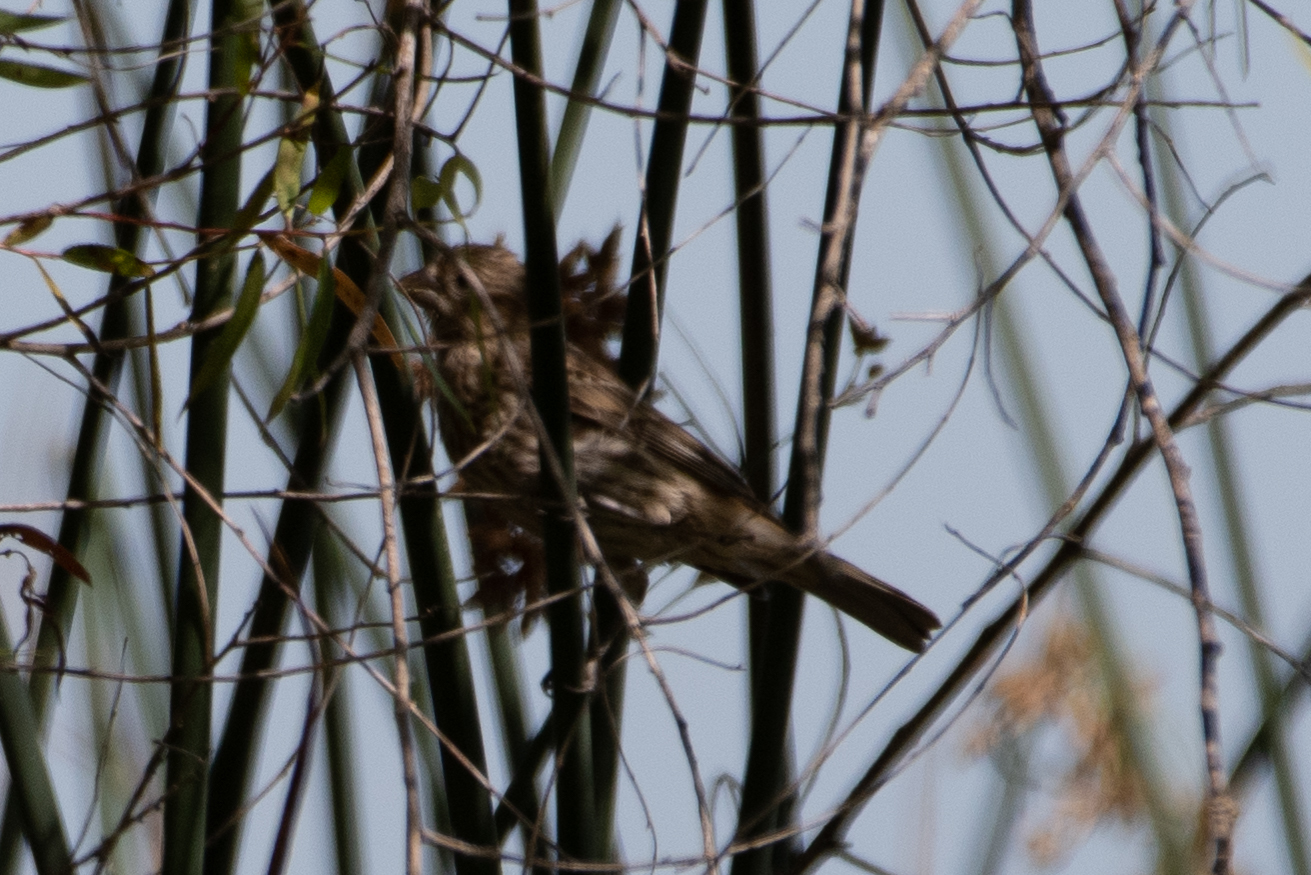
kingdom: Animalia
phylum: Chordata
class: Aves
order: Passeriformes
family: Fringillidae
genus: Haemorhous
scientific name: Haemorhous mexicanus
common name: House finch
